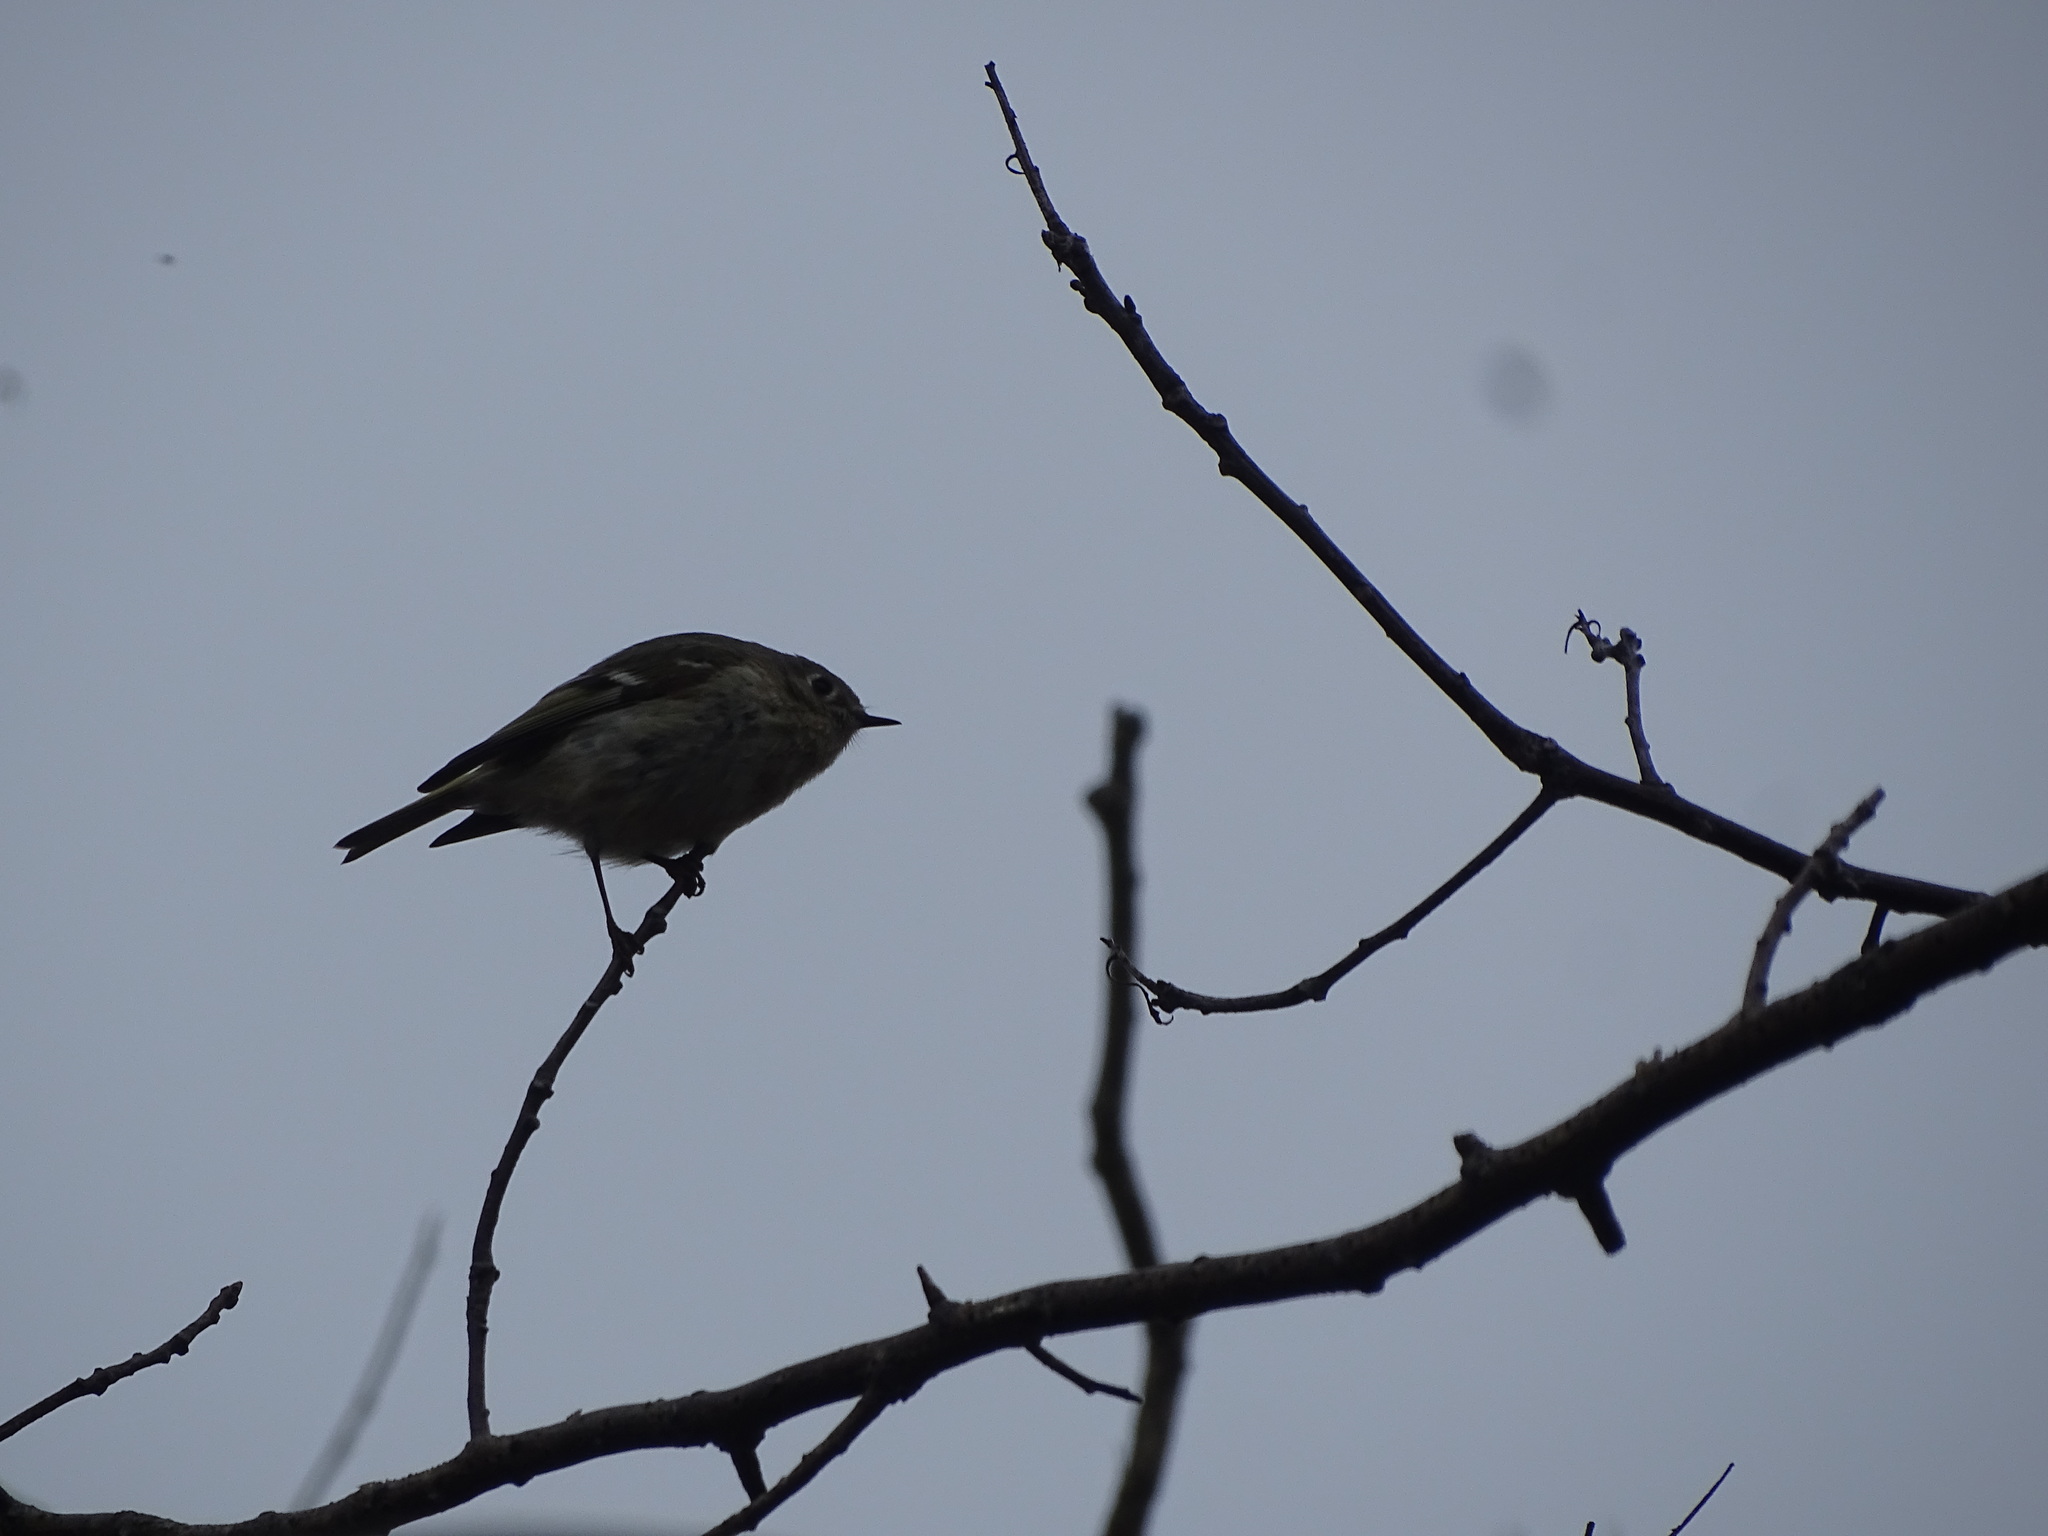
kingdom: Animalia
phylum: Chordata
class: Aves
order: Passeriformes
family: Regulidae
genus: Regulus
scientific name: Regulus calendula
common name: Ruby-crowned kinglet
